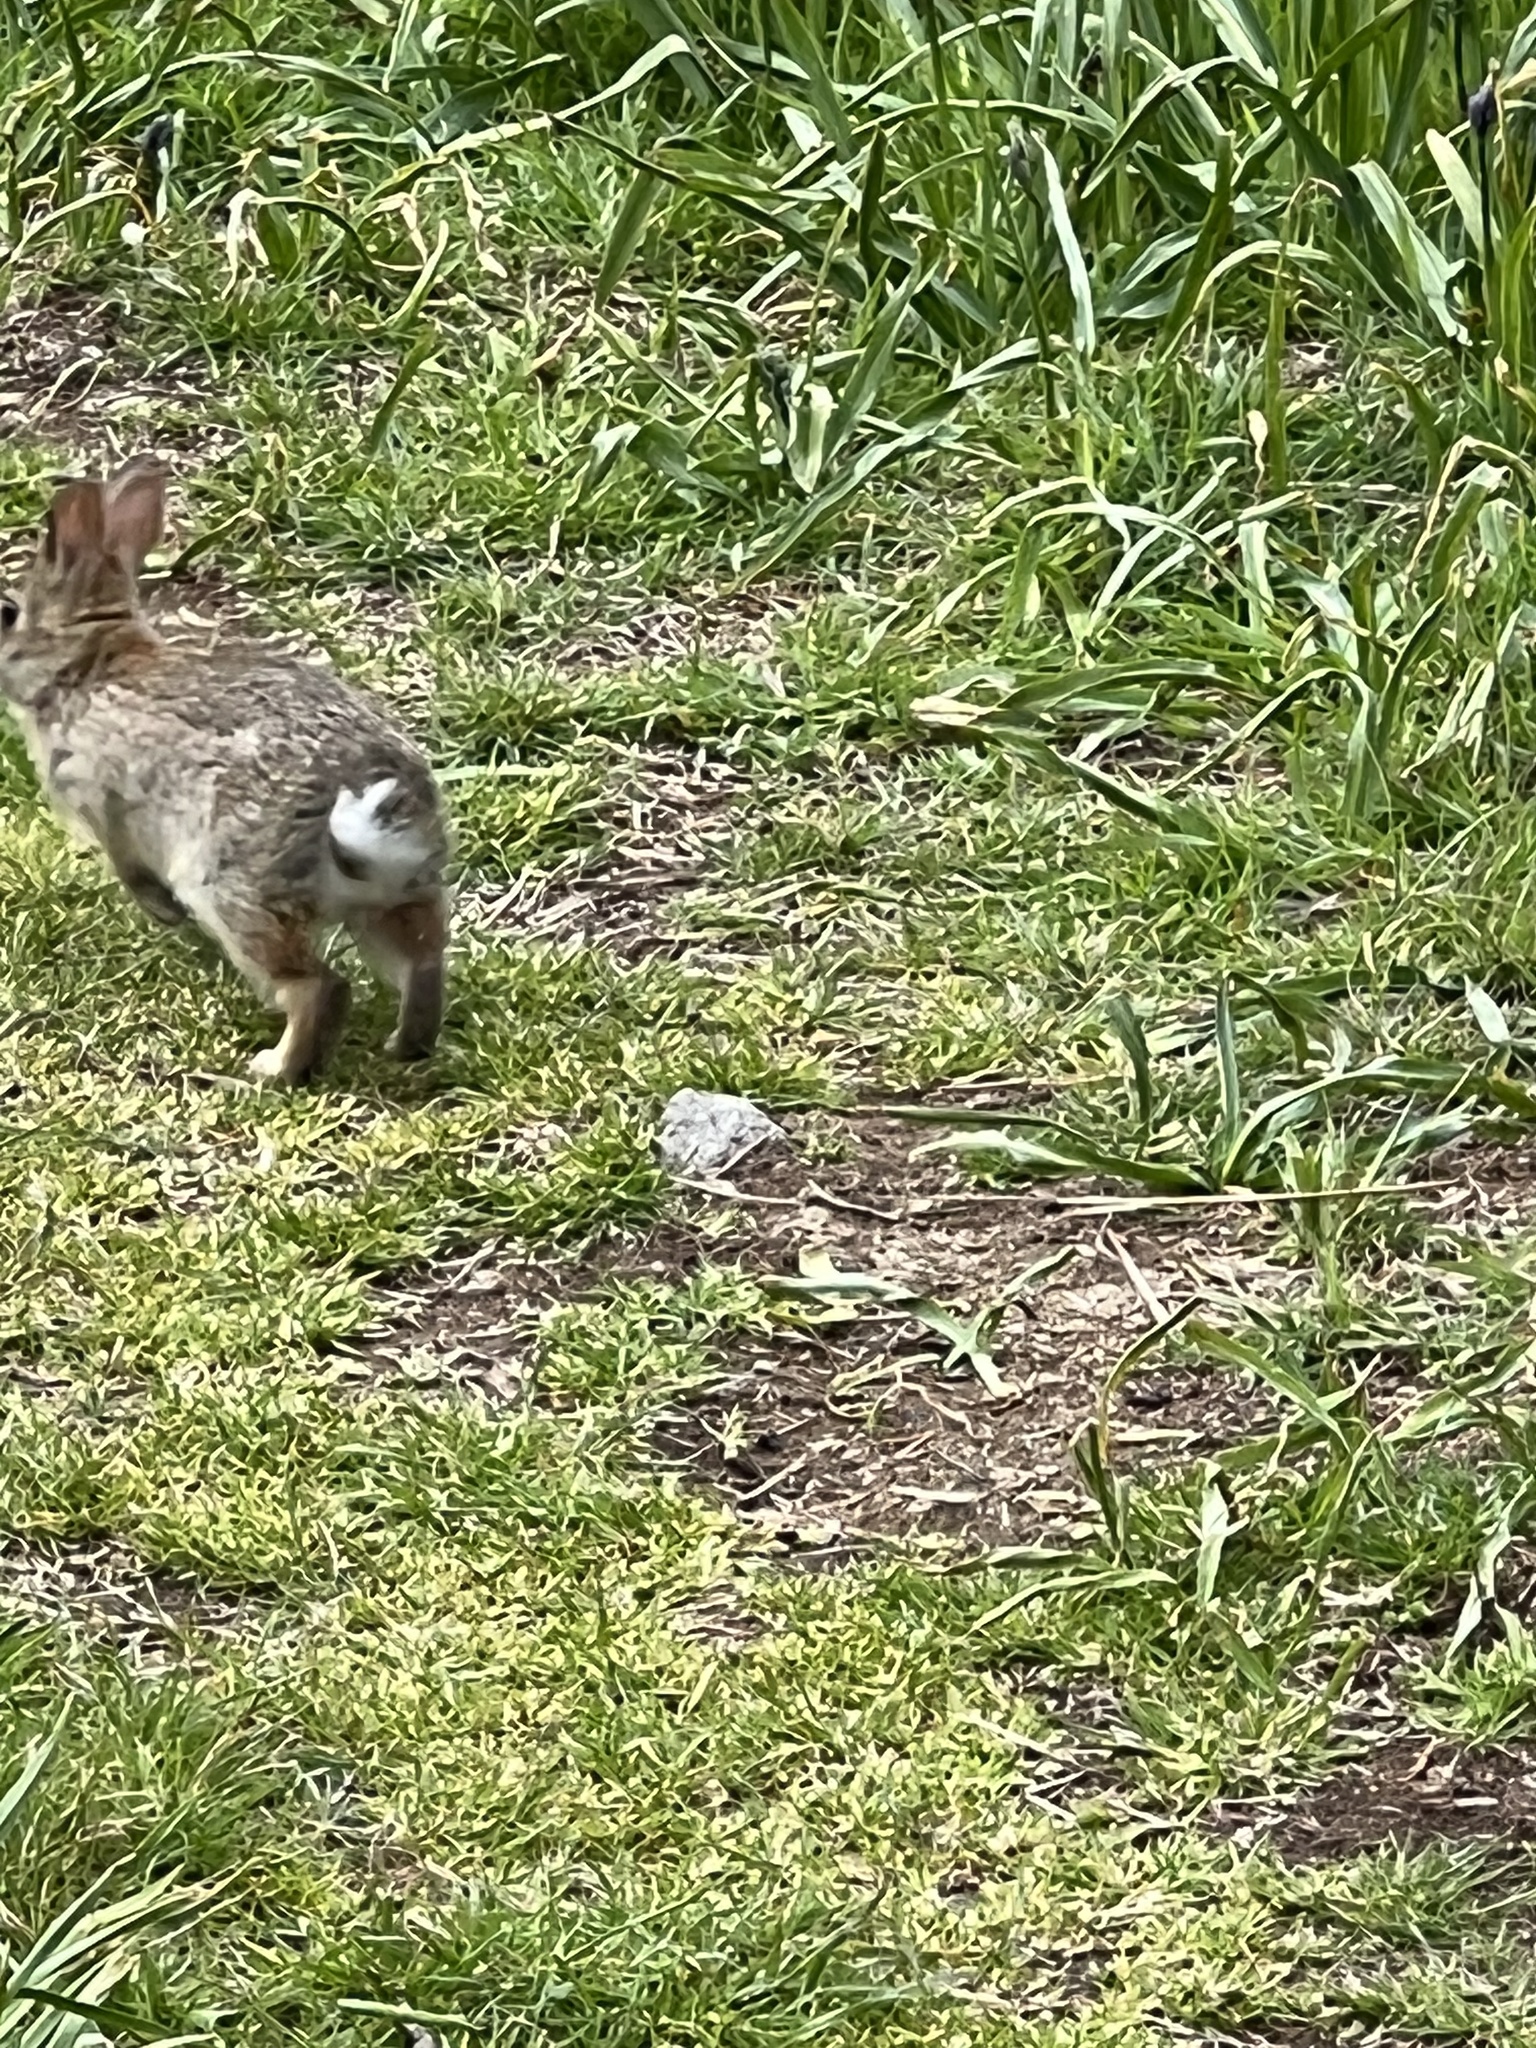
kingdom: Animalia
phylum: Chordata
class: Mammalia
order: Lagomorpha
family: Leporidae
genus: Sylvilagus
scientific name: Sylvilagus floridanus
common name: Eastern cottontail
